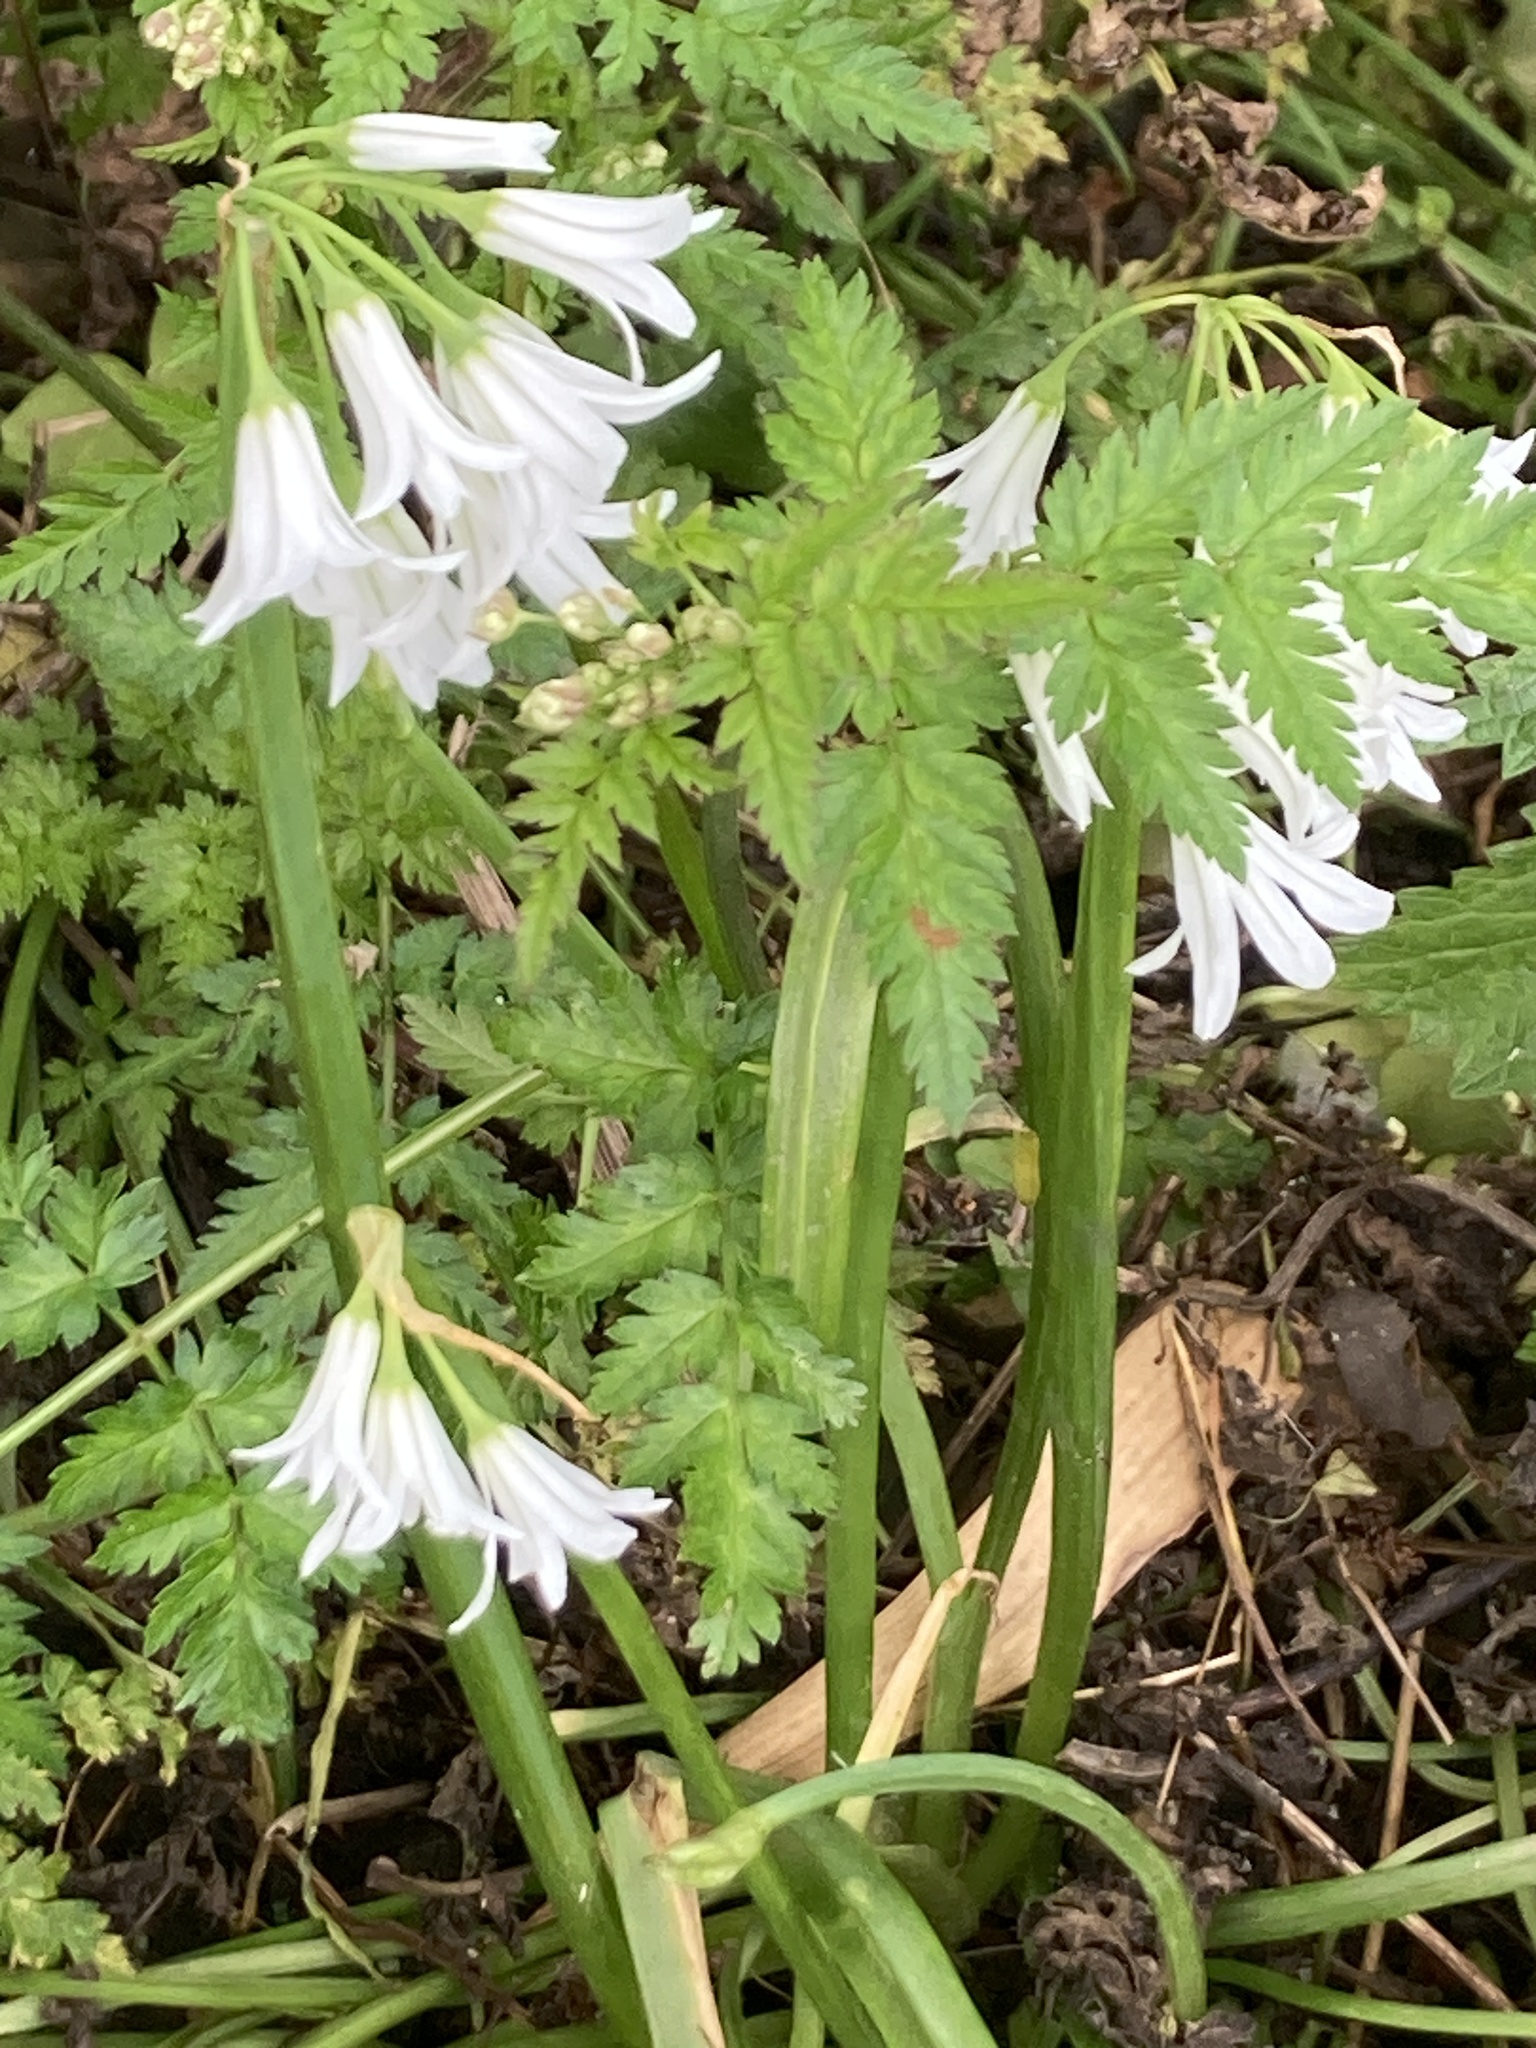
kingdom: Plantae
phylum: Tracheophyta
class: Liliopsida
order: Asparagales
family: Amaryllidaceae
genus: Allium
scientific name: Allium triquetrum
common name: Three-cornered garlic
